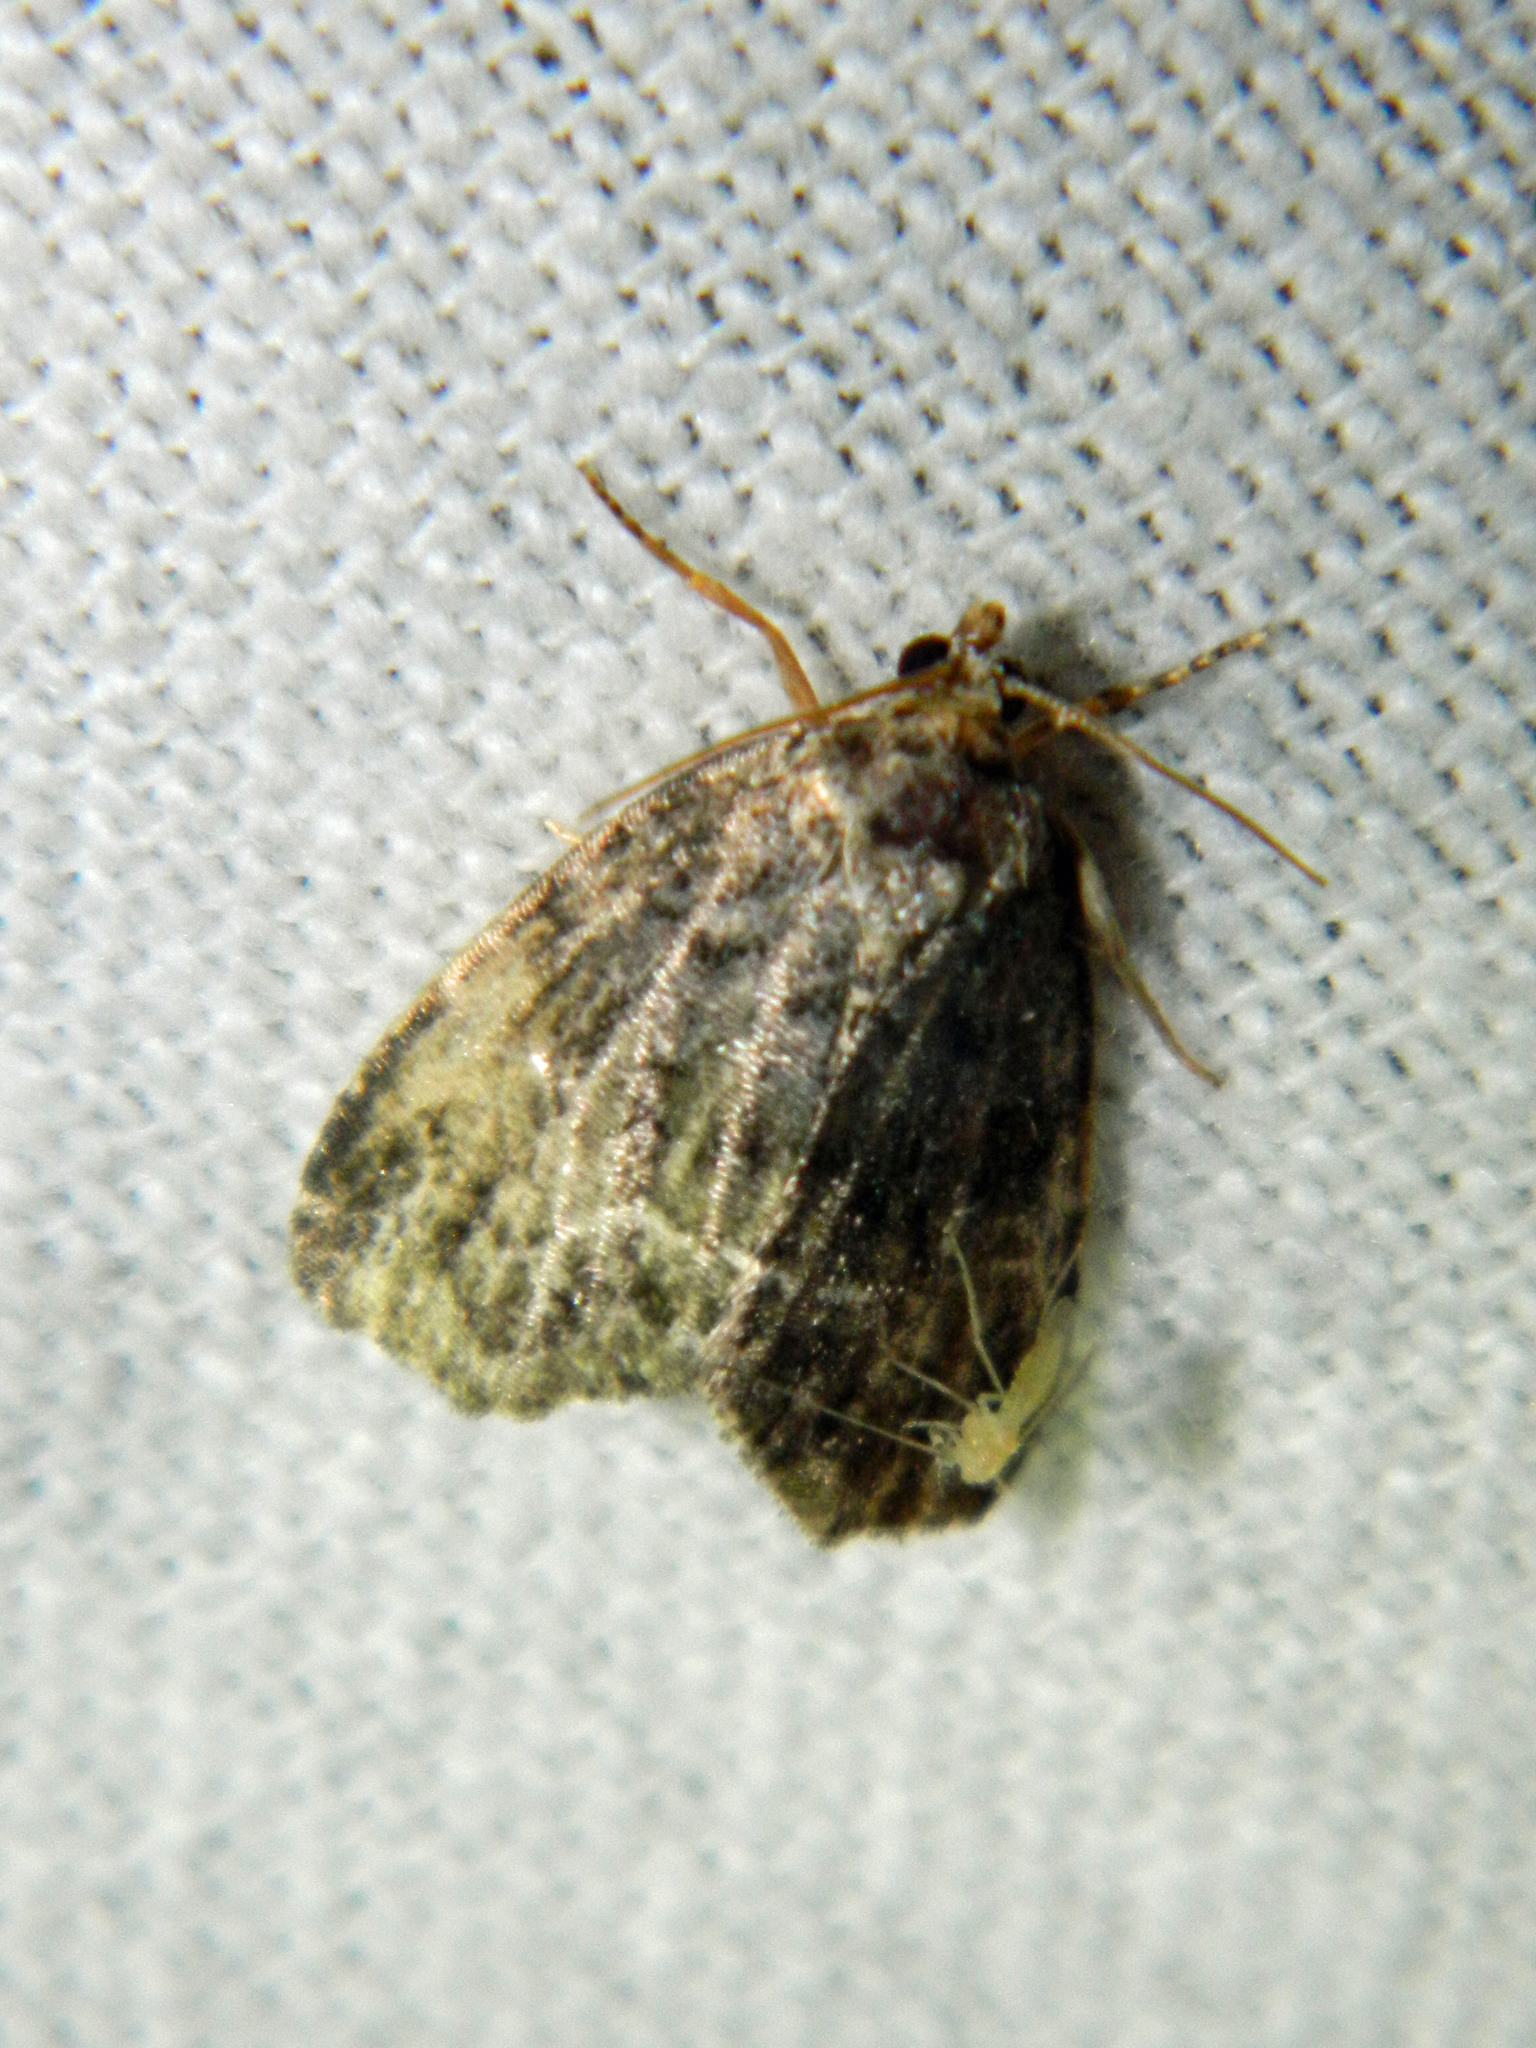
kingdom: Animalia
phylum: Arthropoda
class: Insecta
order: Lepidoptera
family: Noctuidae
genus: Protodeltote
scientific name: Protodeltote muscosula
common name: Large mossy glyph
